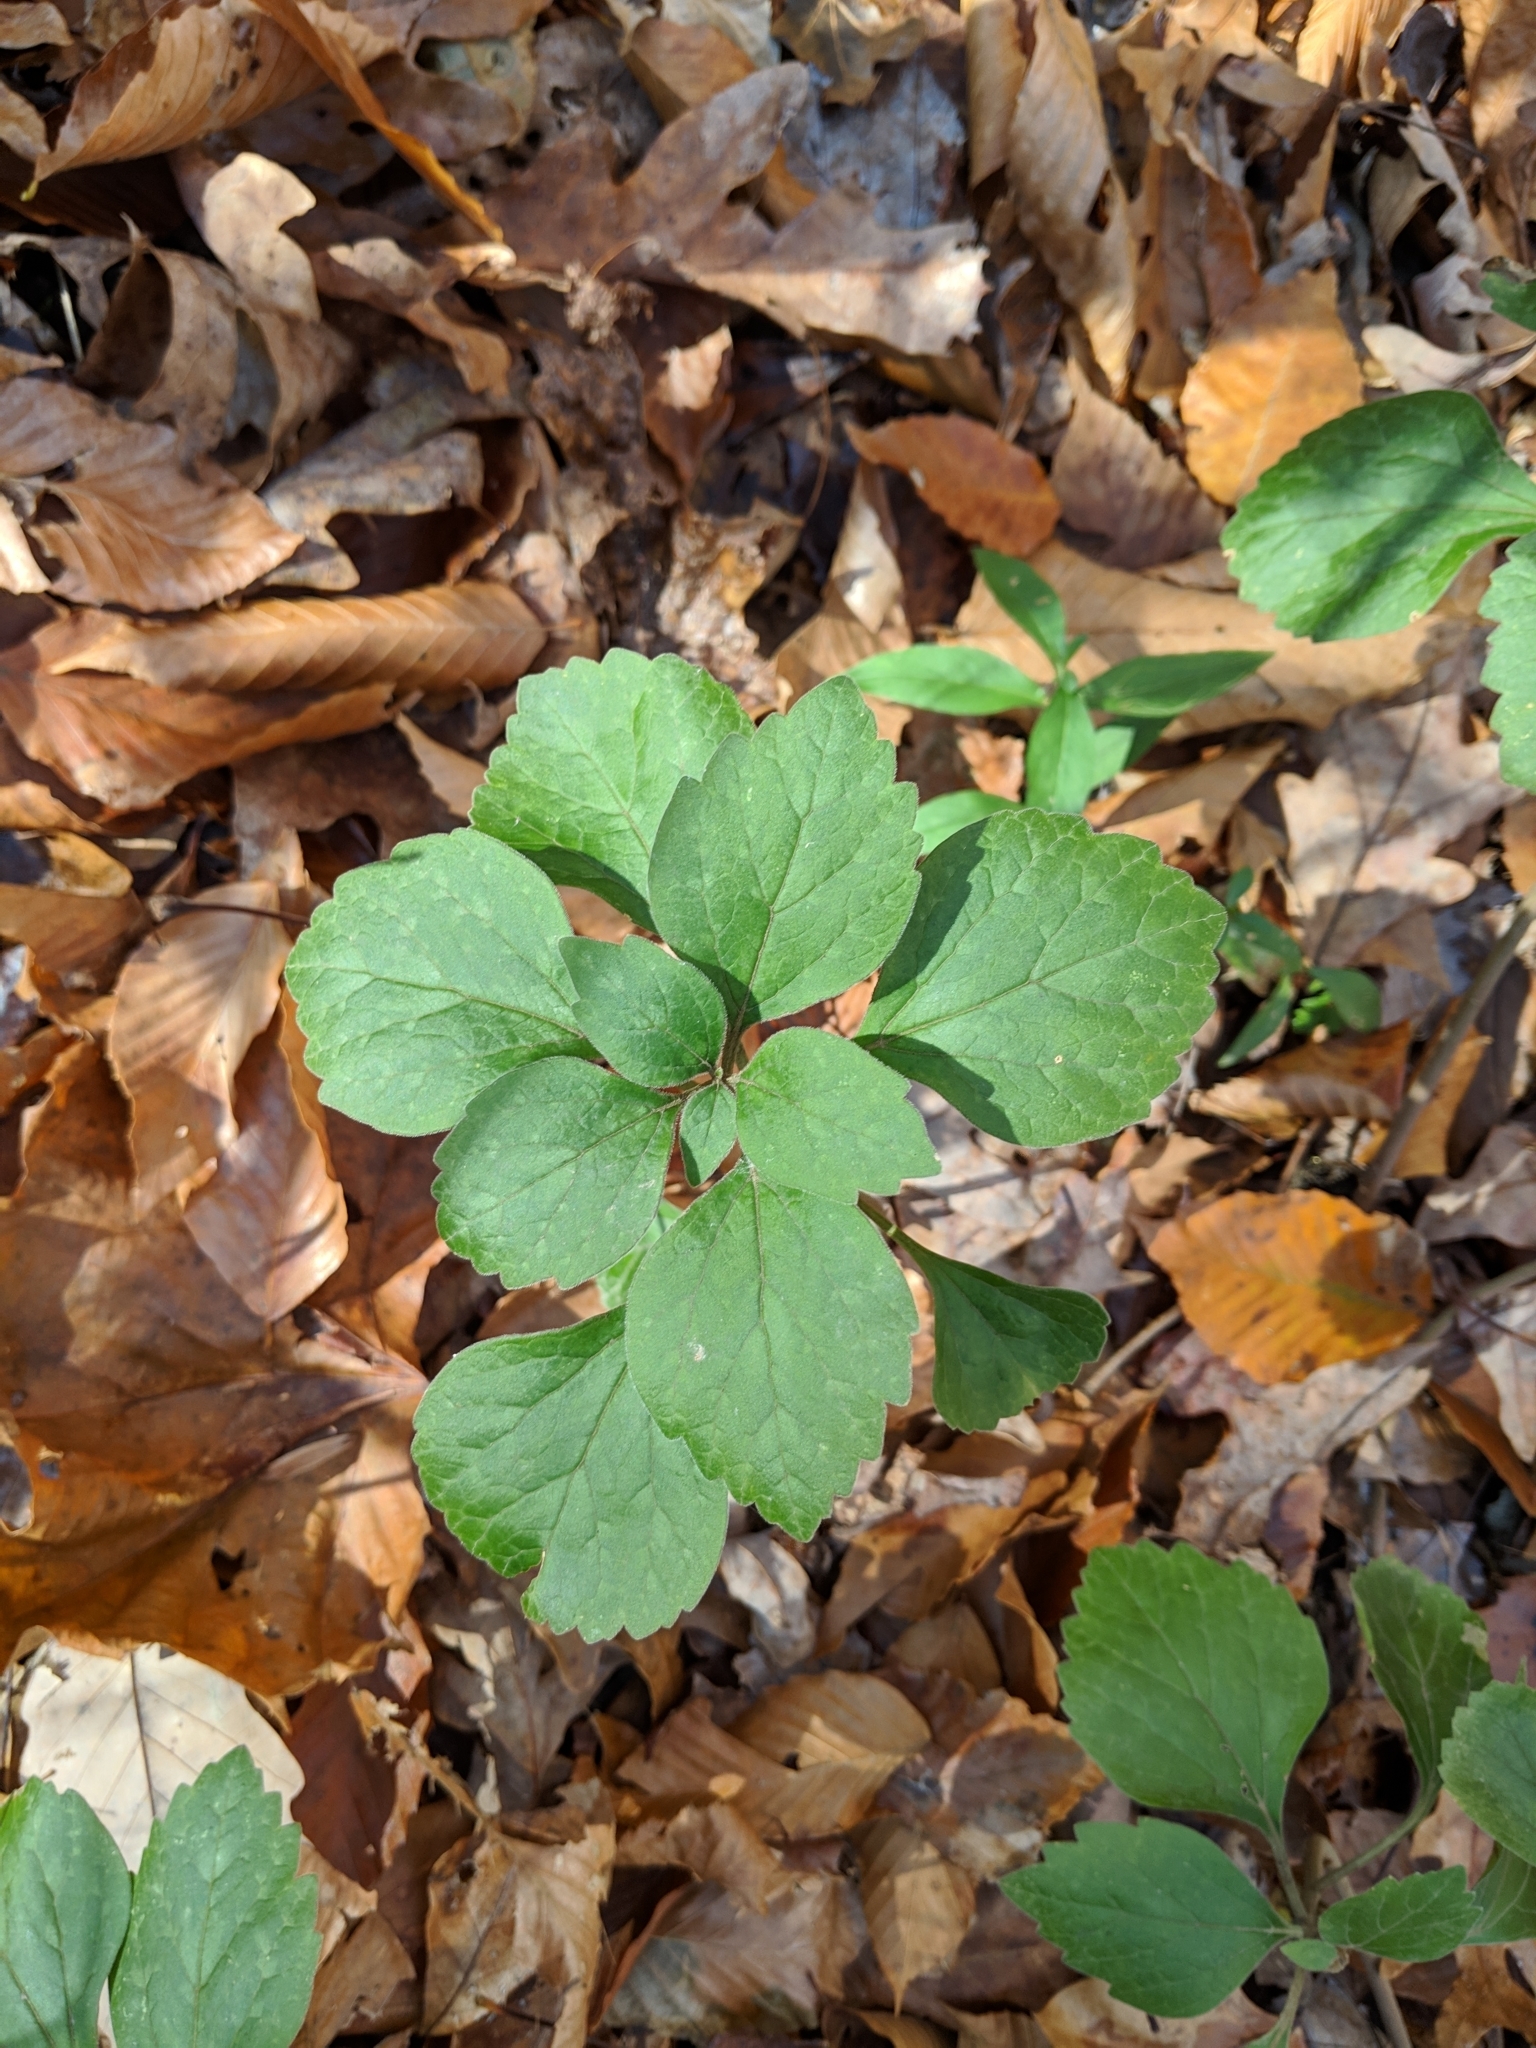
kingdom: Plantae
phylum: Tracheophyta
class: Magnoliopsida
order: Buxales
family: Buxaceae
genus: Pachysandra
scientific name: Pachysandra procumbens
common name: Mountain-spurge
